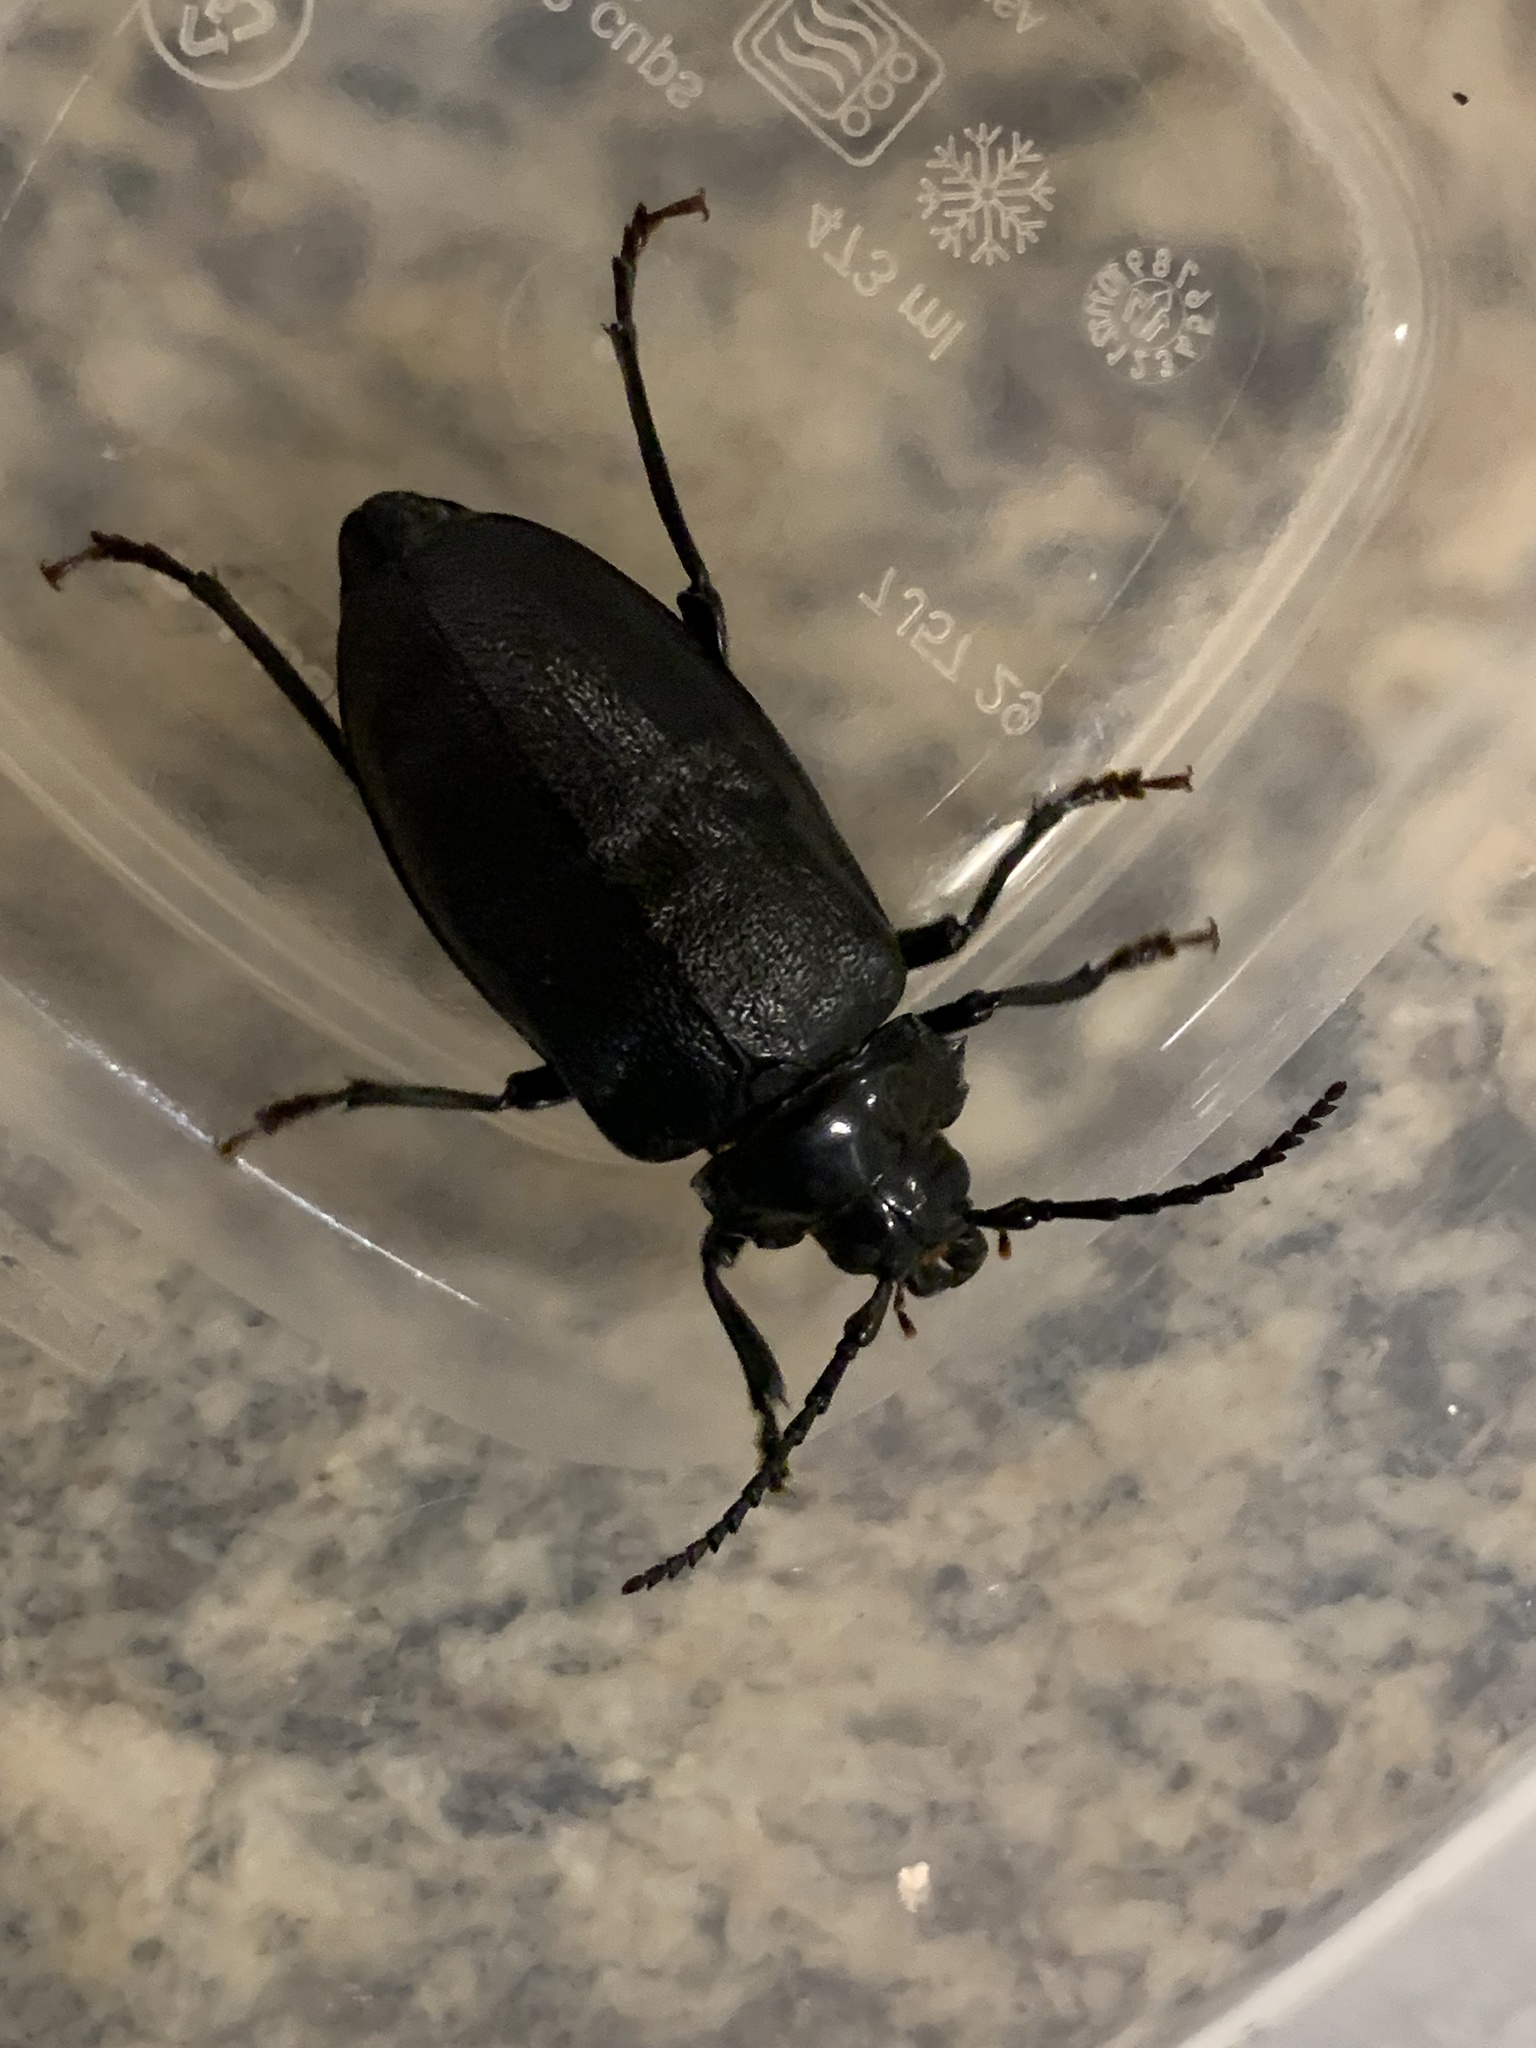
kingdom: Animalia
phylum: Arthropoda
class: Insecta
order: Coleoptera
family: Cerambycidae
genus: Prionus
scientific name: Prionus laticollis
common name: Broad necked prionus
